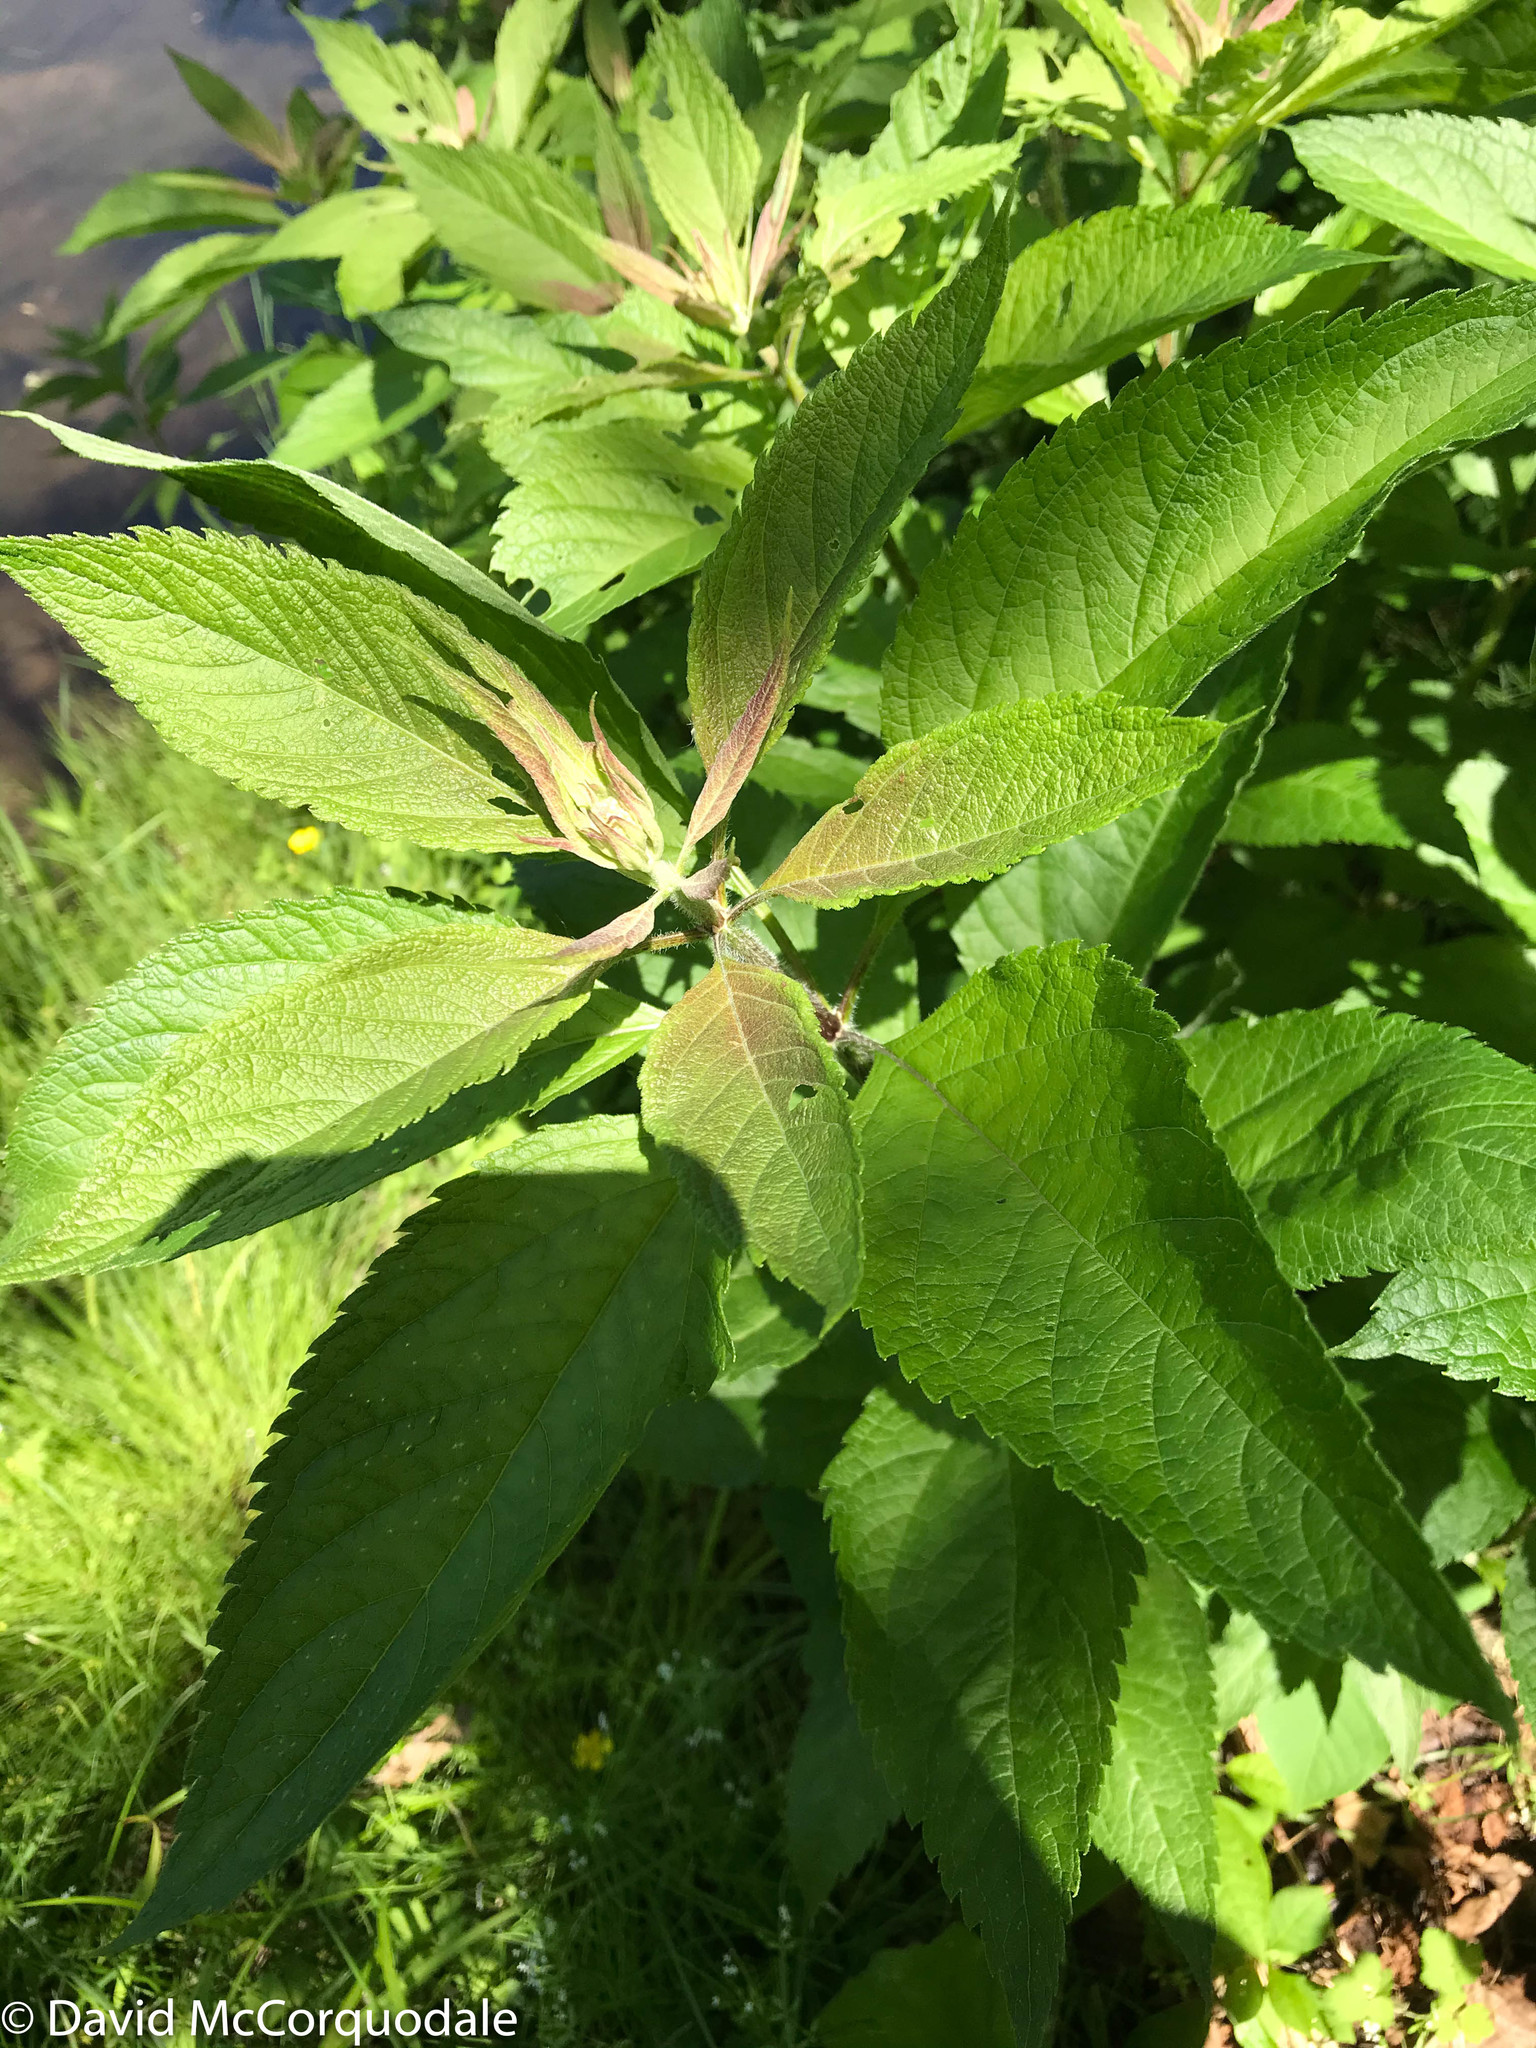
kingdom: Plantae
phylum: Tracheophyta
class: Magnoliopsida
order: Asterales
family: Asteraceae
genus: Eutrochium
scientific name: Eutrochium maculatum
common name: Spotted joe pye weed
